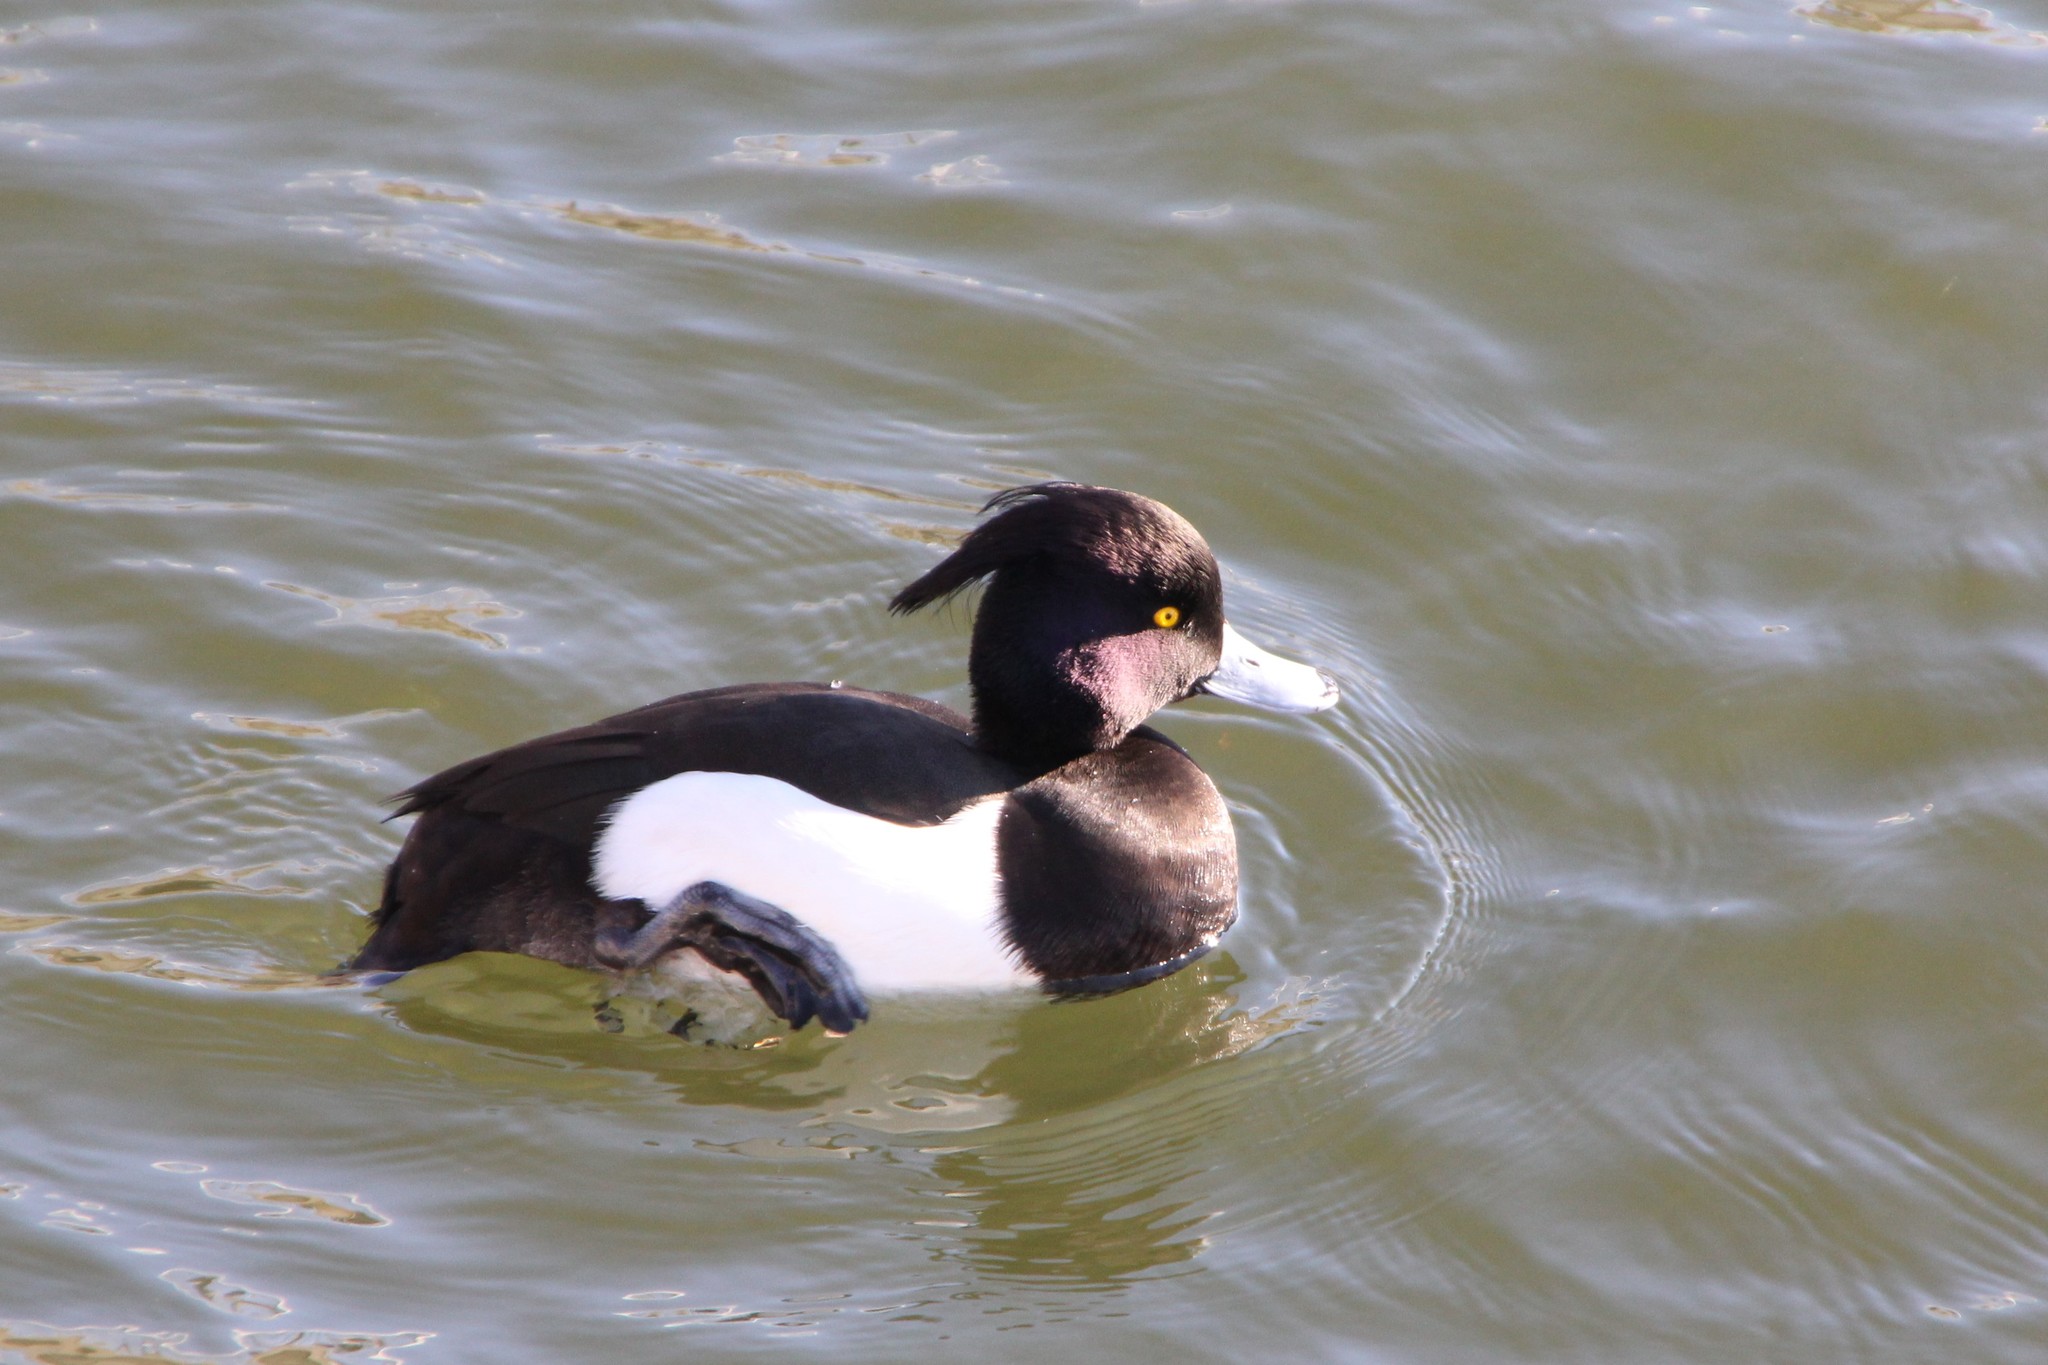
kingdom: Animalia
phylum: Chordata
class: Aves
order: Anseriformes
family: Anatidae
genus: Aythya
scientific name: Aythya fuligula
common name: Tufted duck
